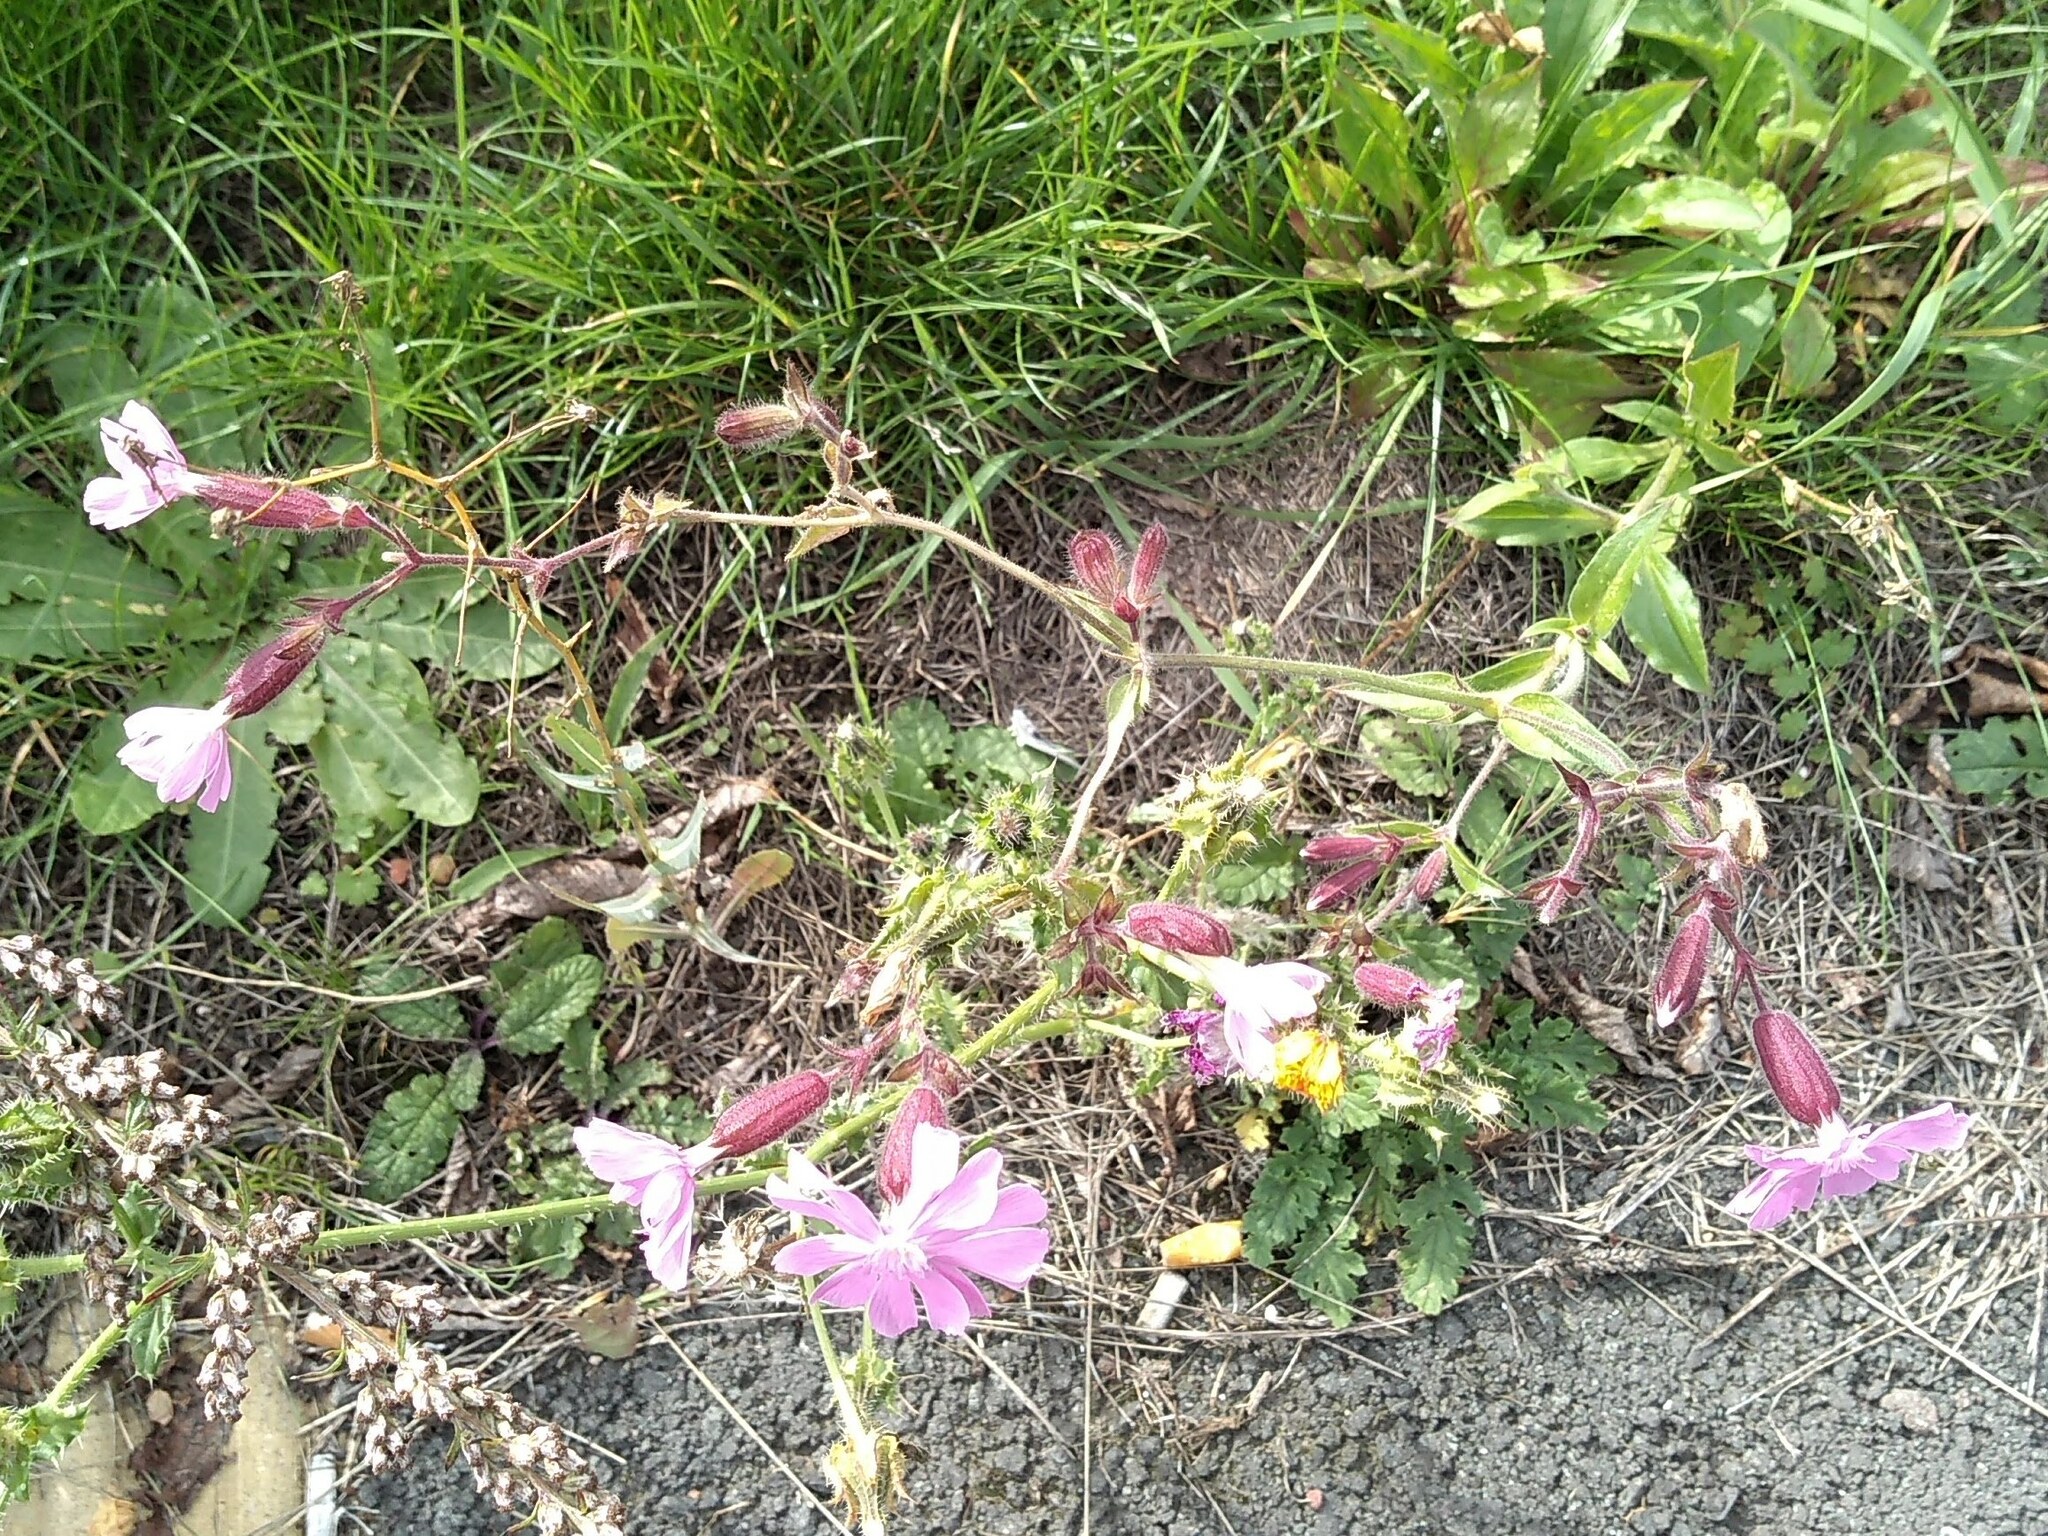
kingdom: Plantae
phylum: Tracheophyta
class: Magnoliopsida
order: Caryophyllales
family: Caryophyllaceae
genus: Silene
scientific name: Silene dioica
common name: Red campion
